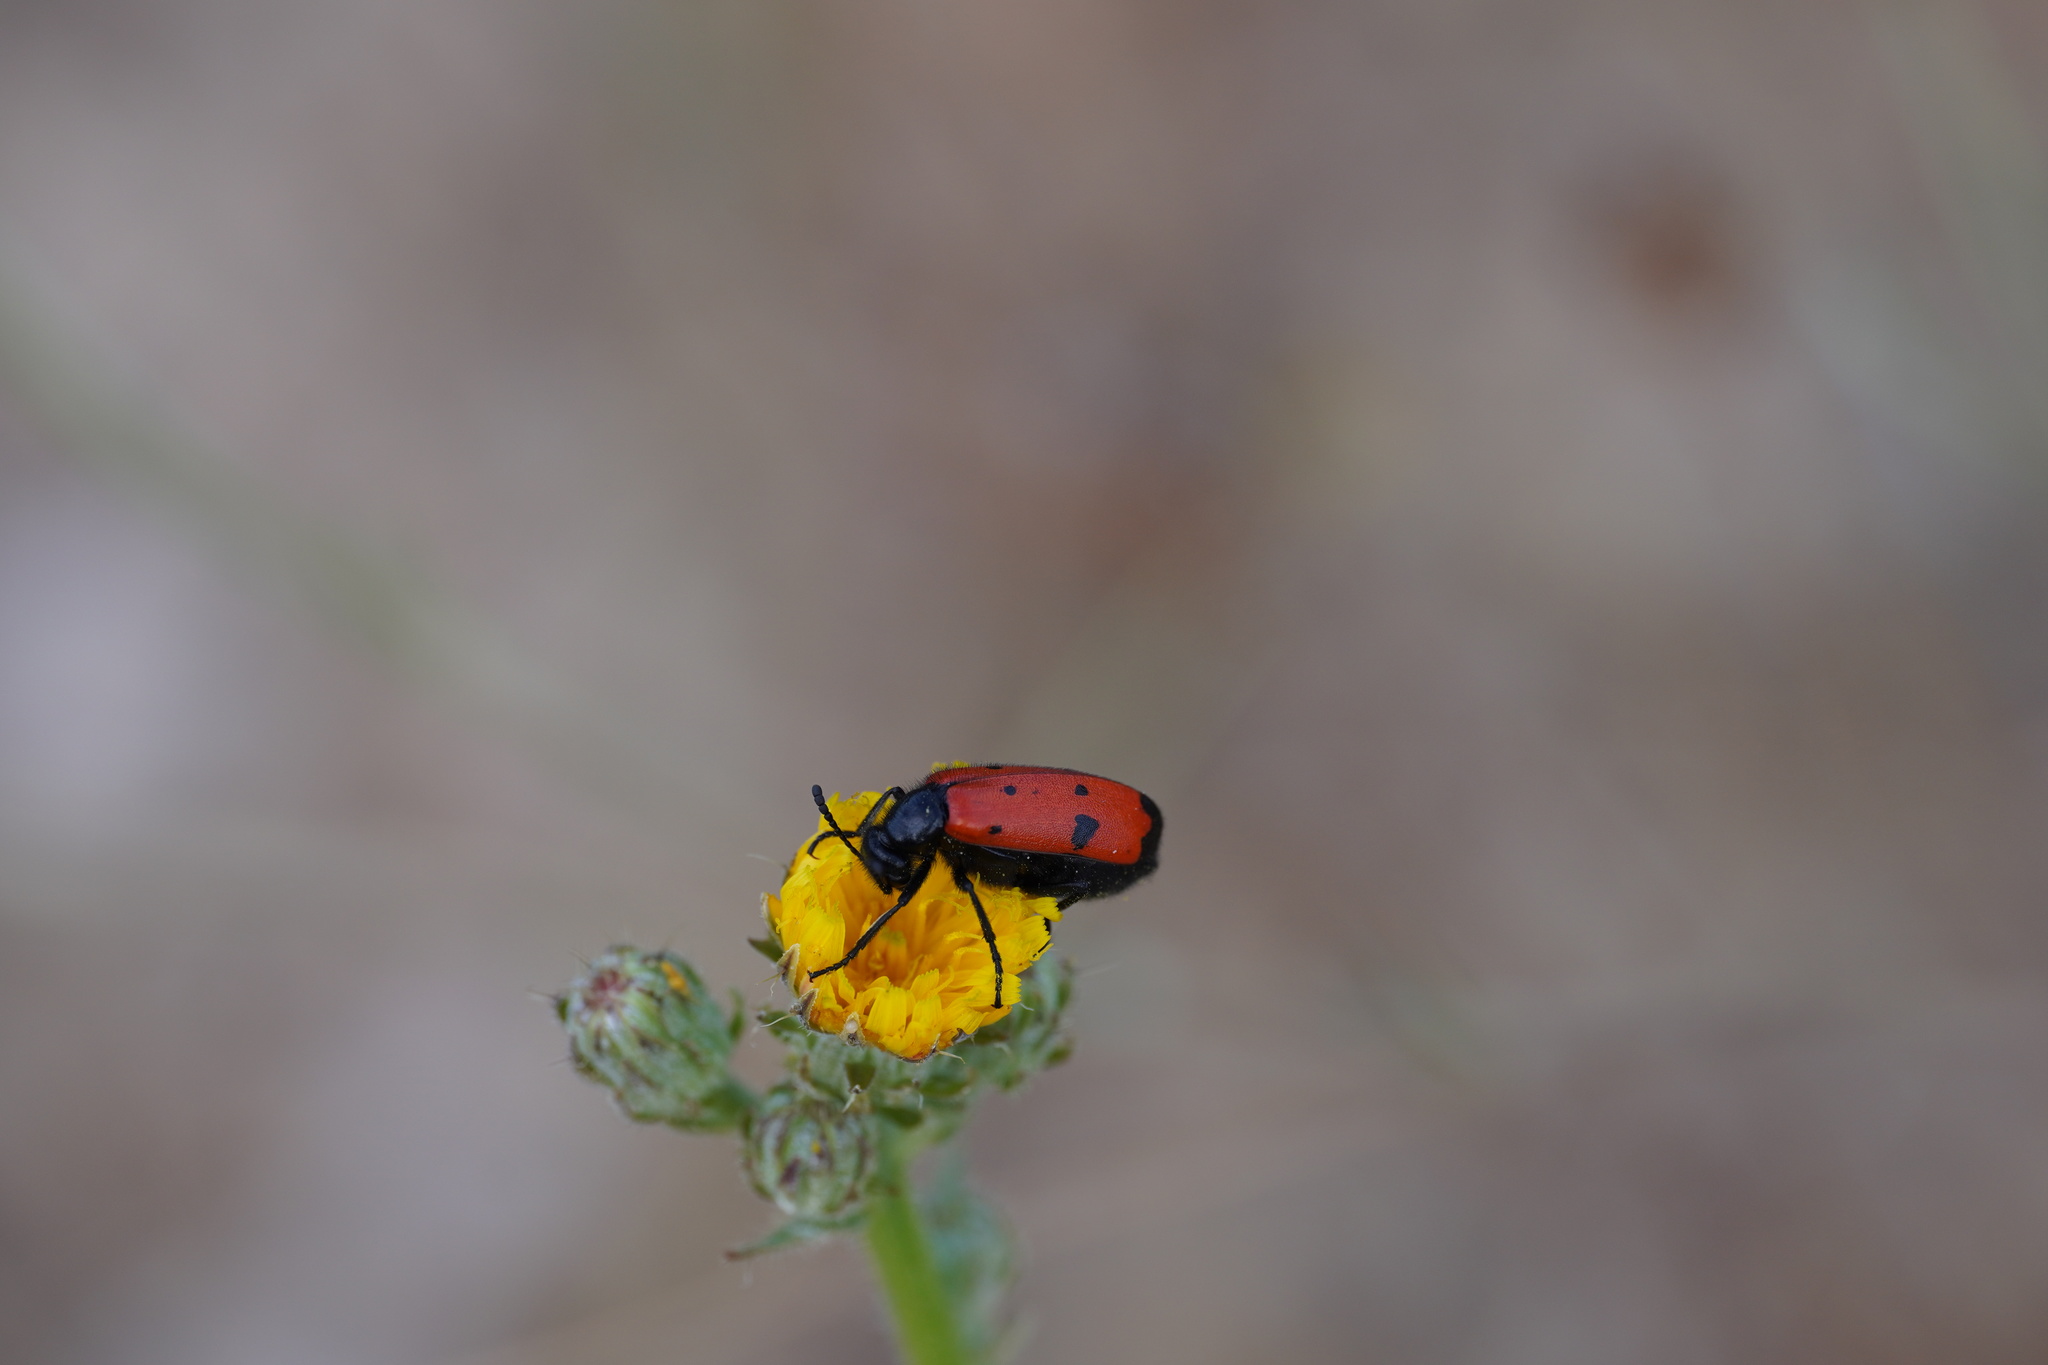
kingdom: Animalia
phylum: Arthropoda
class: Insecta
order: Coleoptera
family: Meloidae
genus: Mylabris
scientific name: Mylabris quadripunctata
